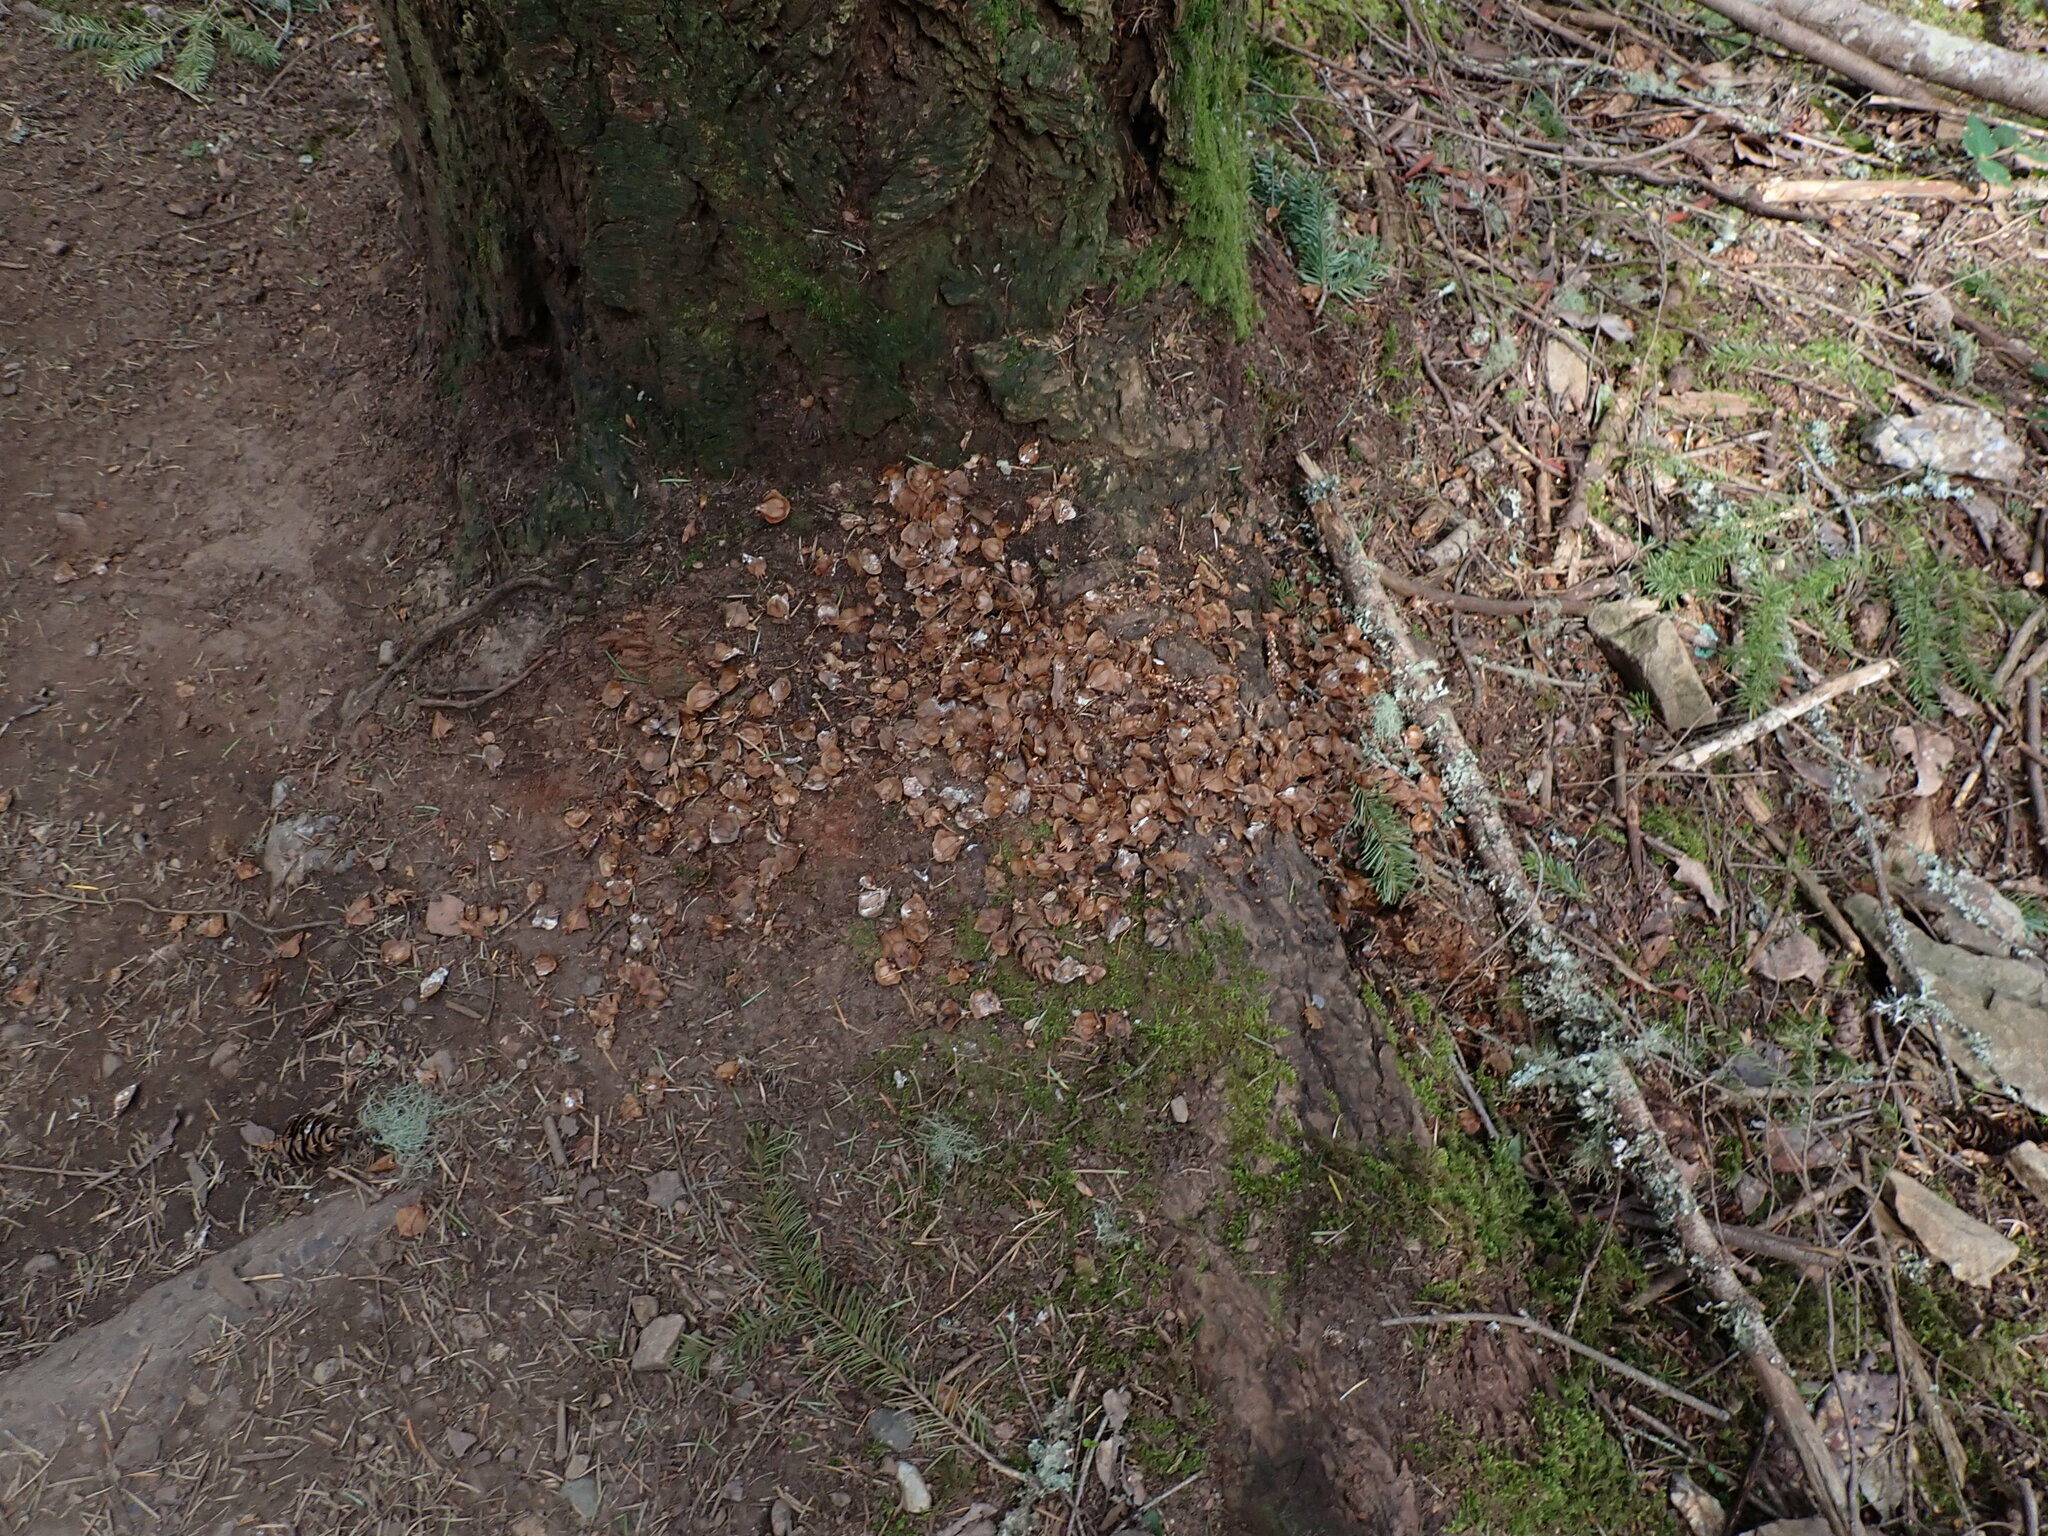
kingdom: Animalia
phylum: Chordata
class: Mammalia
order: Rodentia
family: Sciuridae
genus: Tamiasciurus
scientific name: Tamiasciurus hudsonicus
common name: Red squirrel
